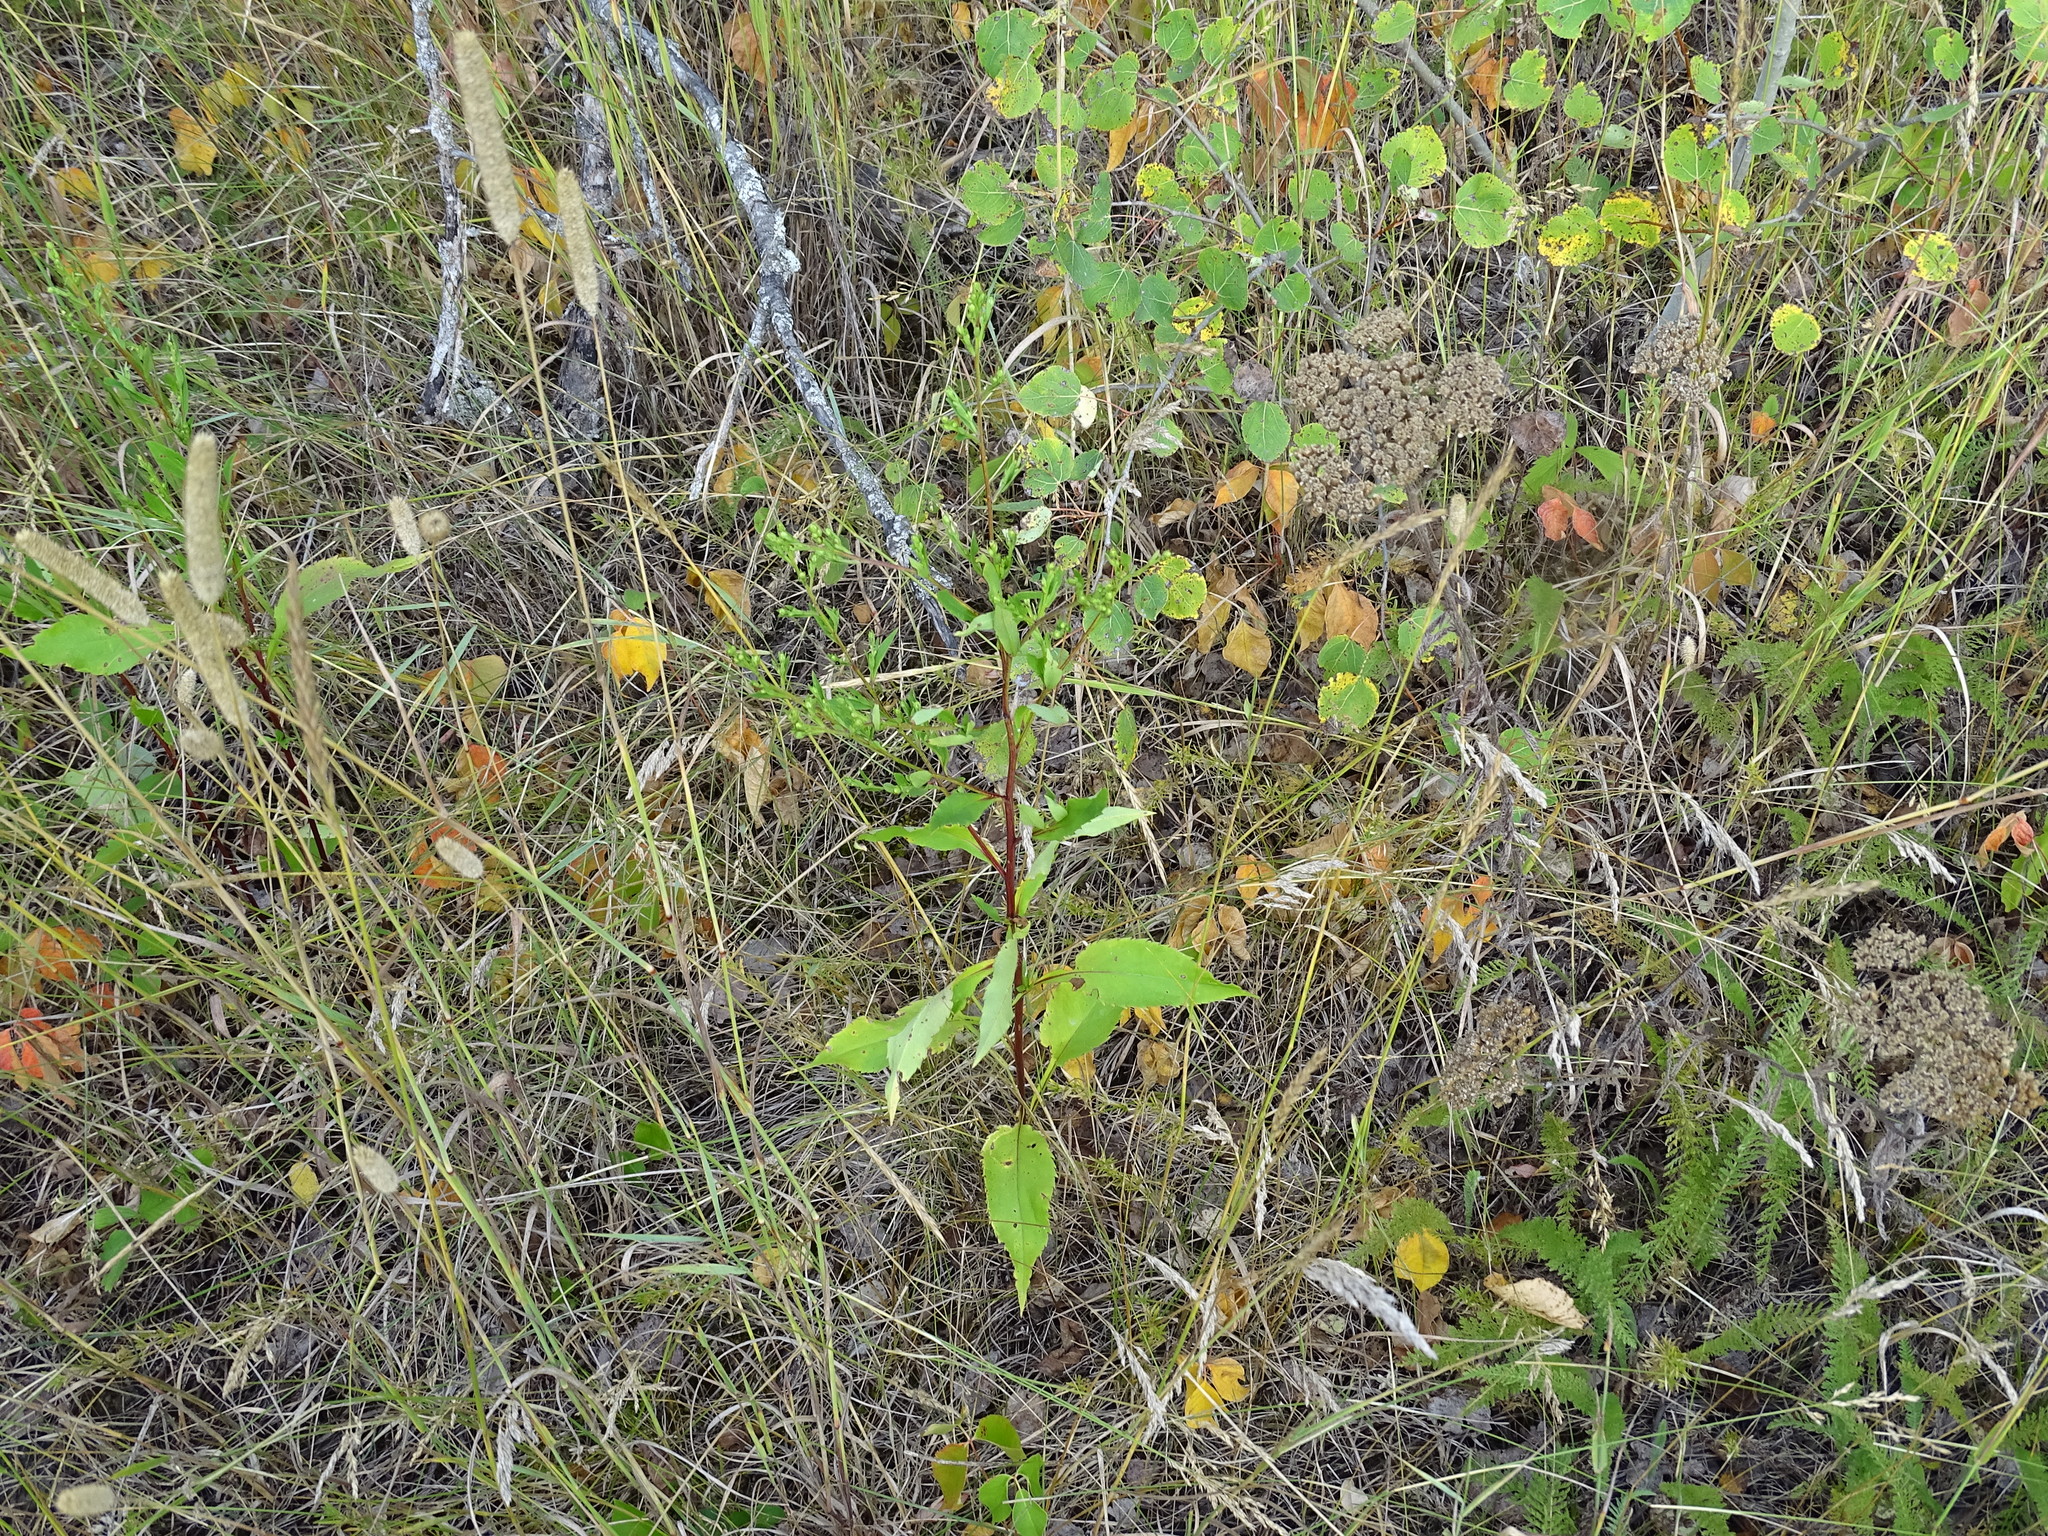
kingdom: Plantae
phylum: Tracheophyta
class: Magnoliopsida
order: Asterales
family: Asteraceae
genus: Symphyotrichum
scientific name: Symphyotrichum ciliolatum
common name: Fringed blue aster
